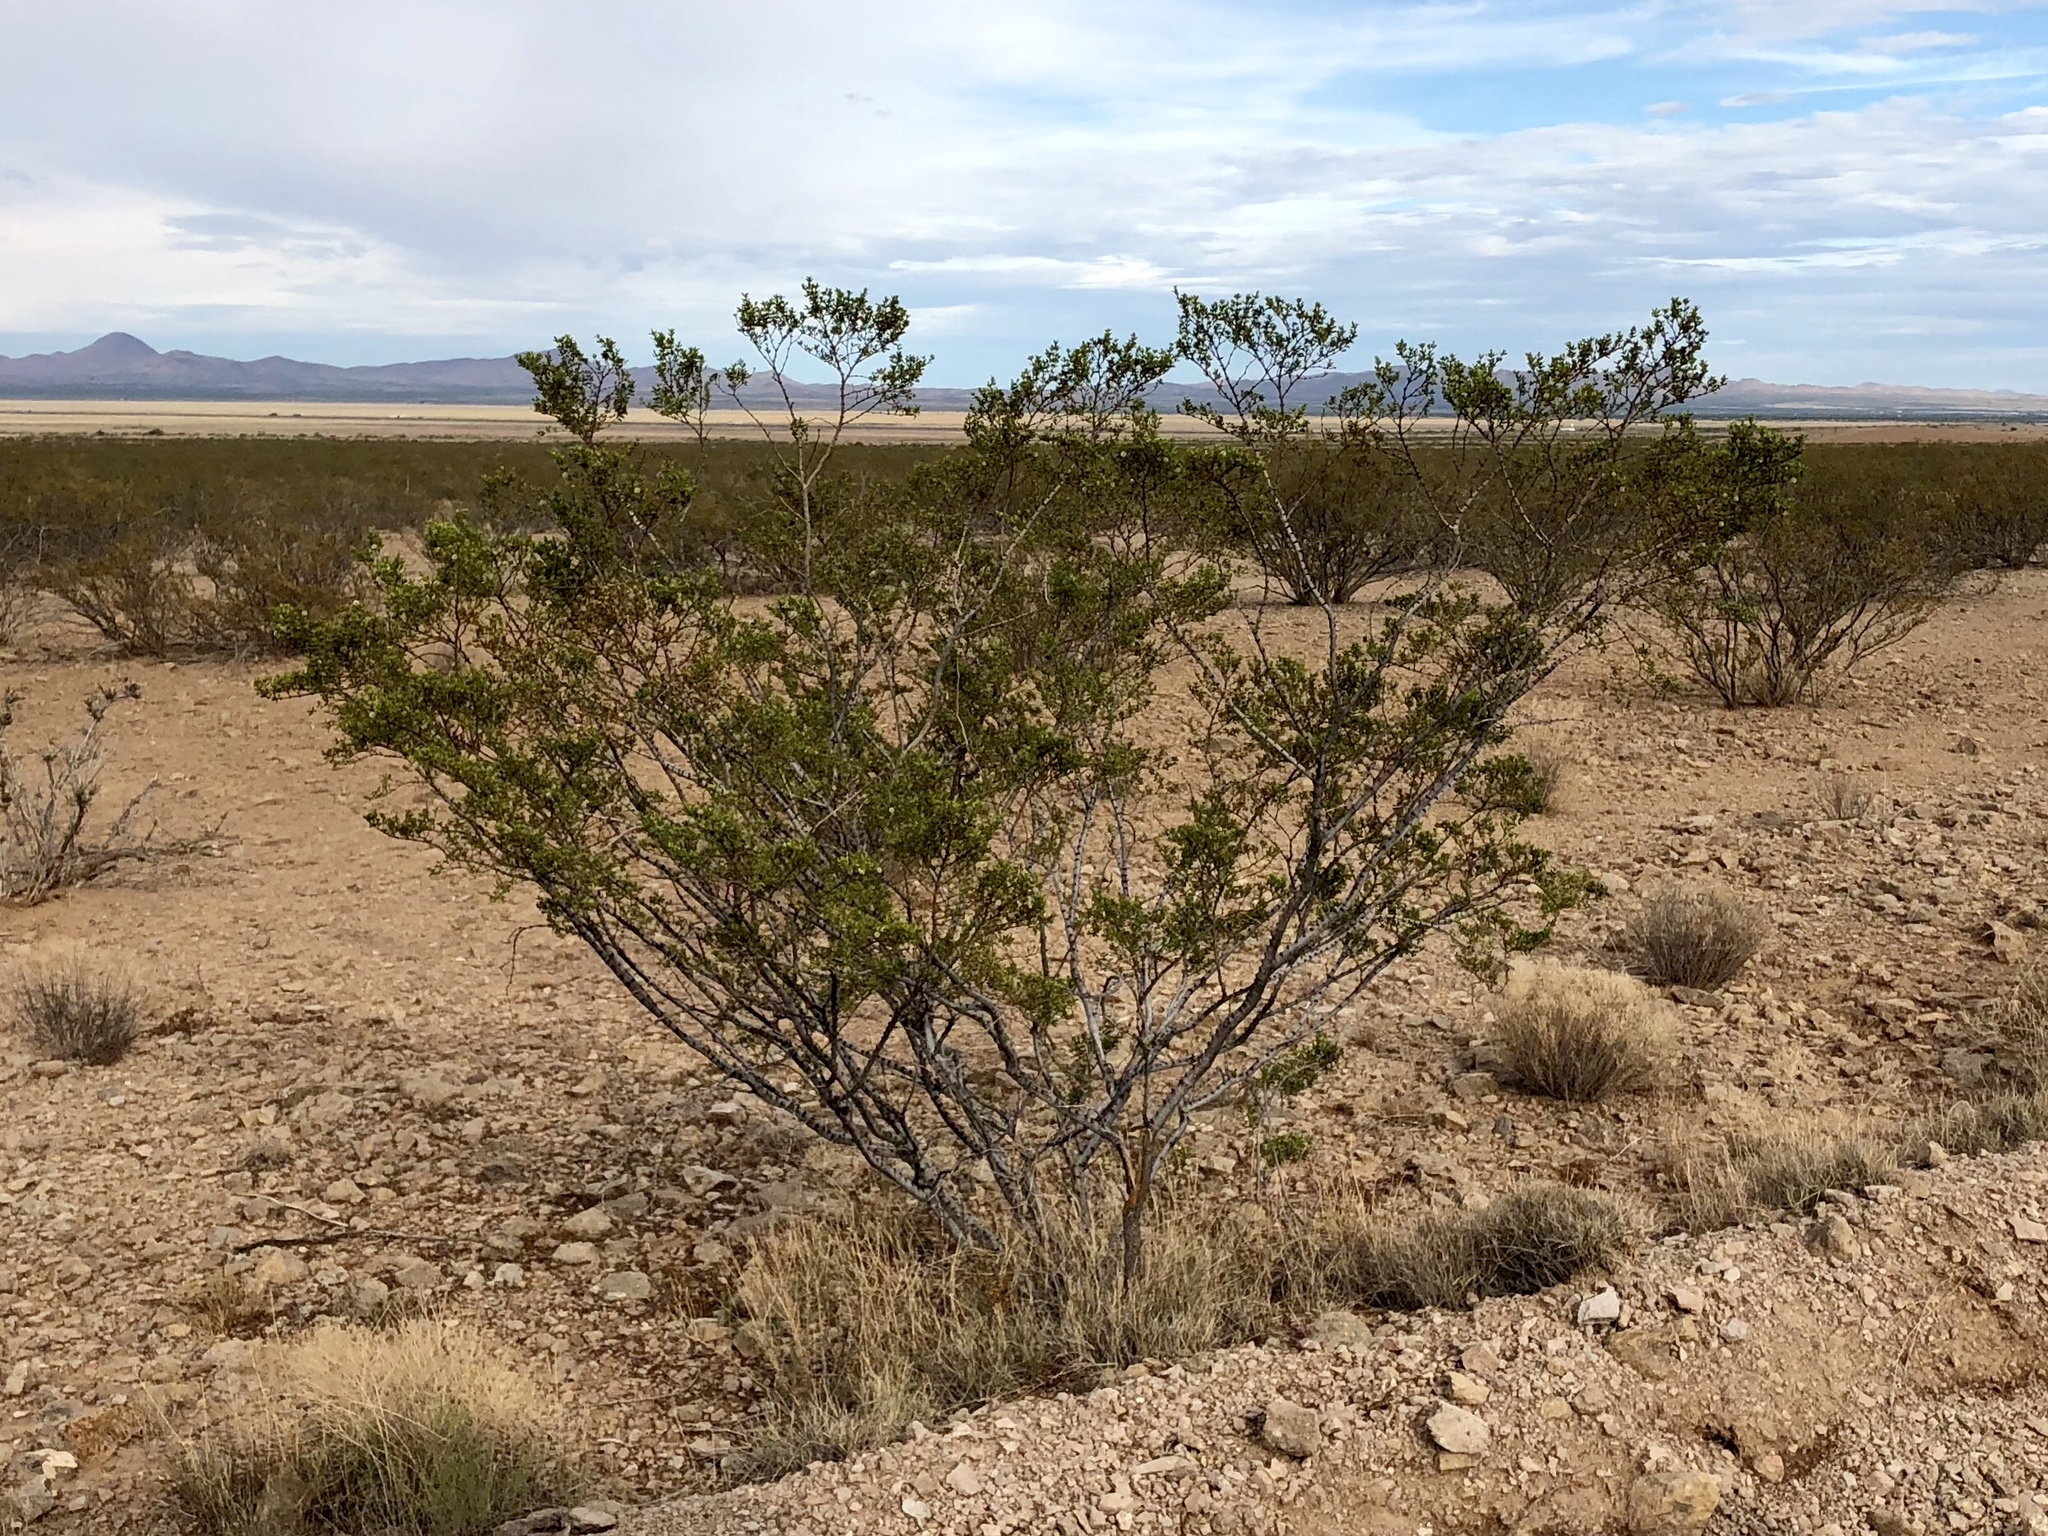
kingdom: Plantae
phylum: Tracheophyta
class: Magnoliopsida
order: Zygophyllales
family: Zygophyllaceae
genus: Larrea
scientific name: Larrea tridentata
